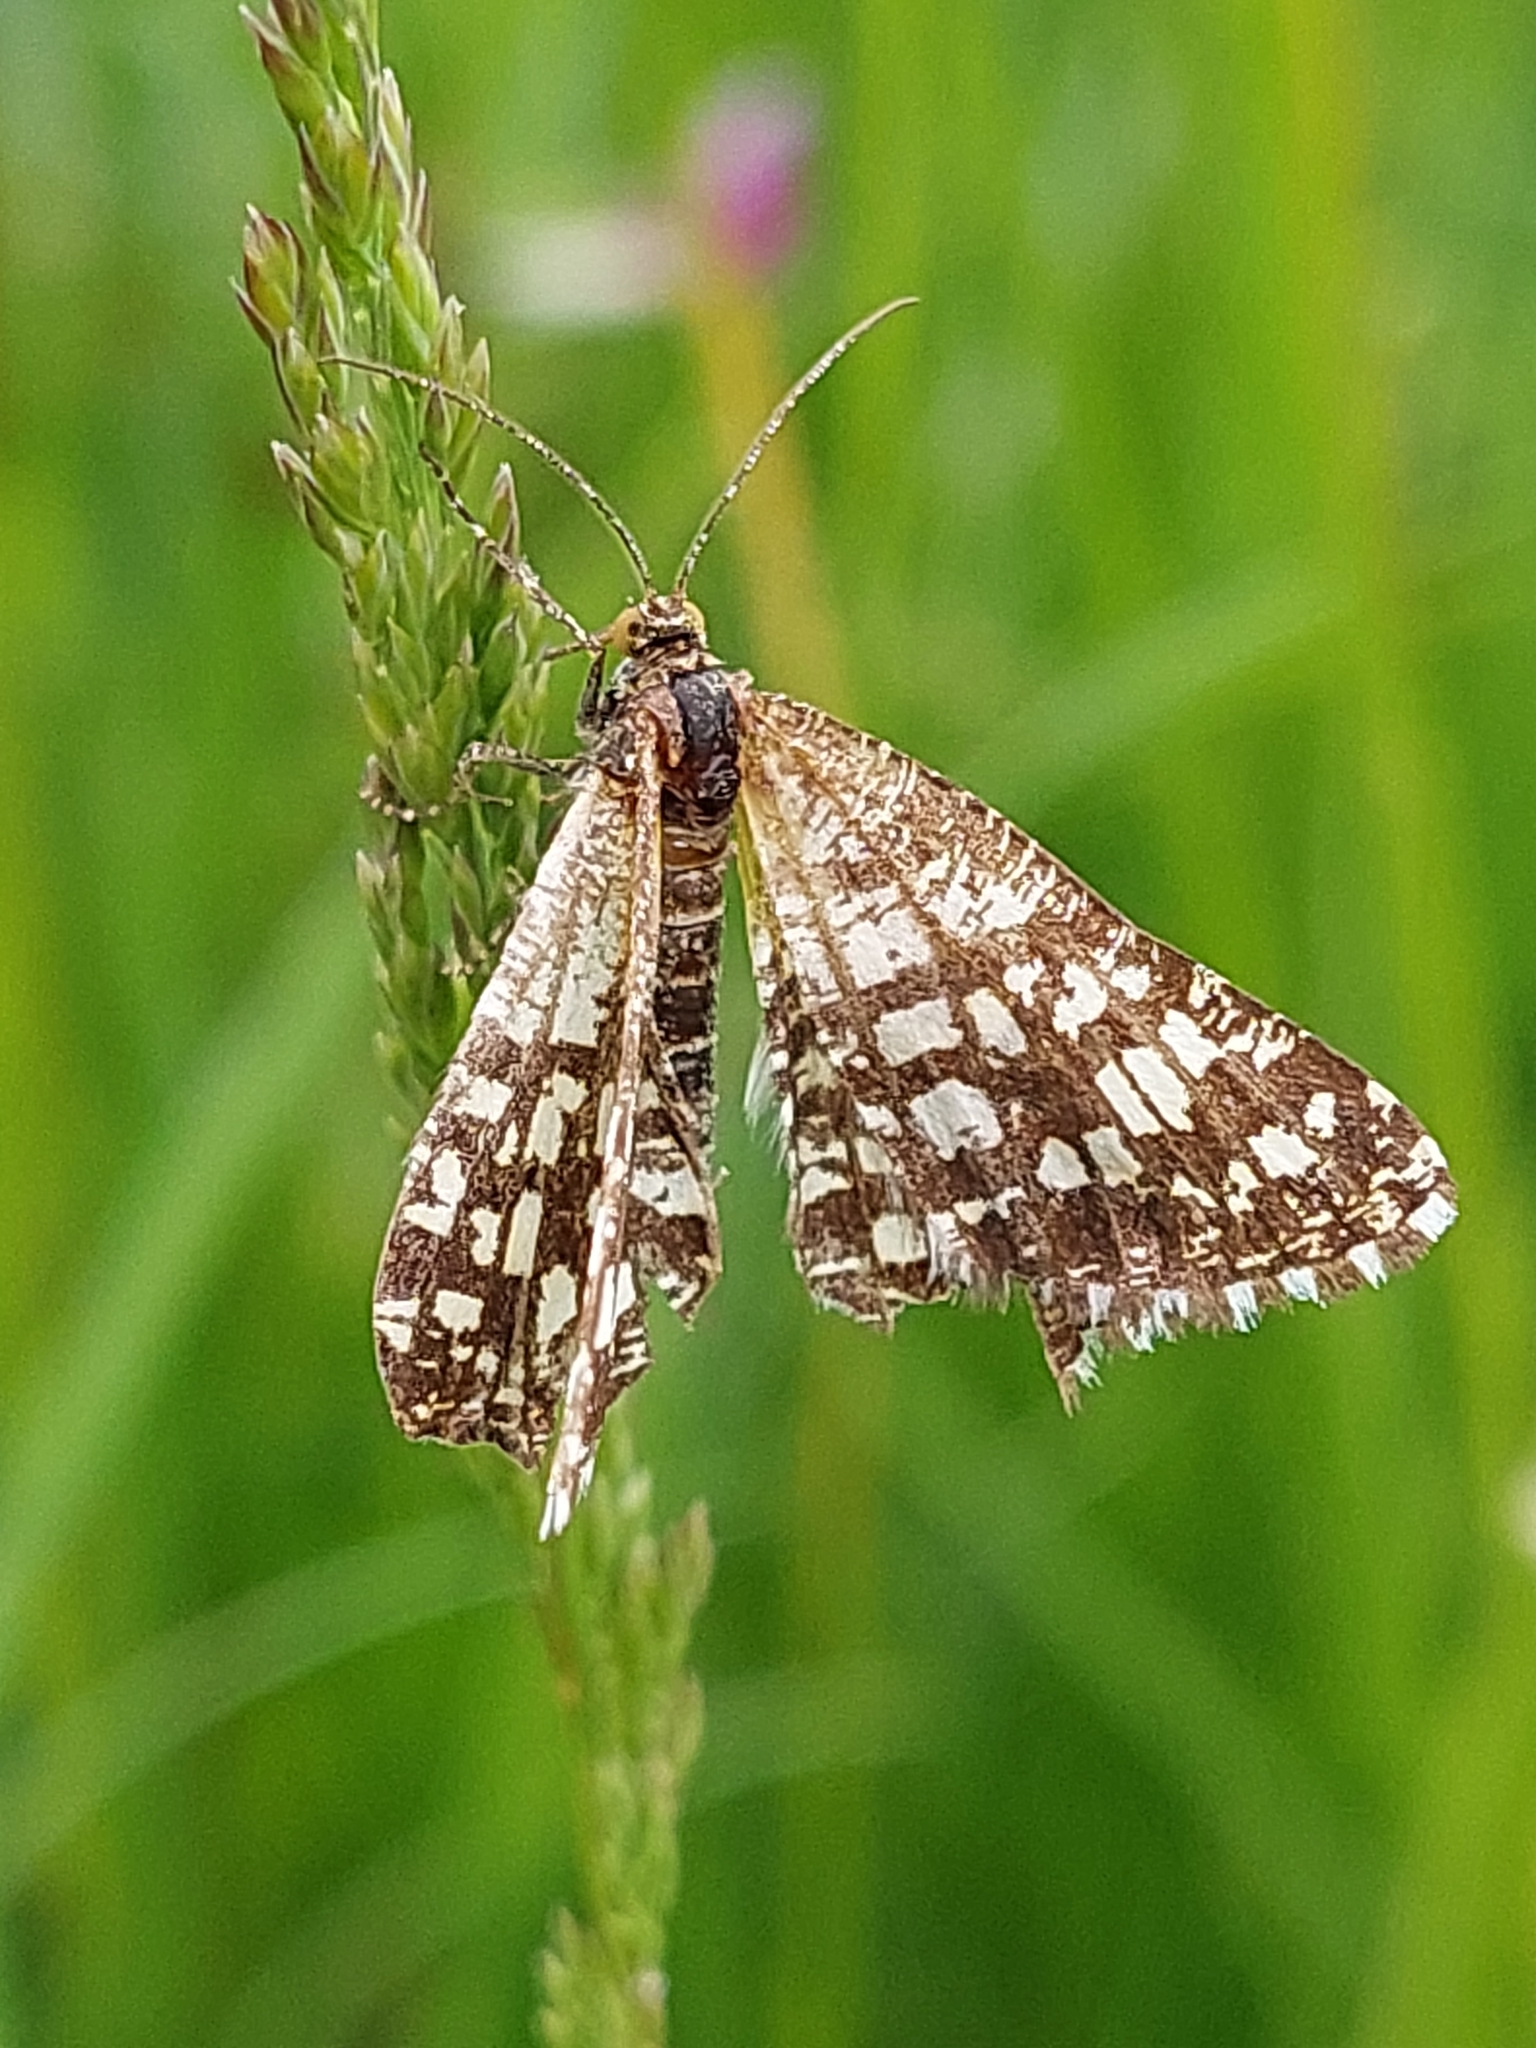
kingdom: Animalia
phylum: Arthropoda
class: Insecta
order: Lepidoptera
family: Geometridae
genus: Chiasmia
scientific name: Chiasmia clathrata
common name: Latticed heath
